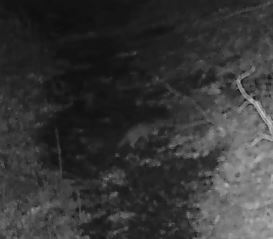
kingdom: Animalia
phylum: Chordata
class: Mammalia
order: Carnivora
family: Mustelidae
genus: Mustela
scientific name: Mustela
